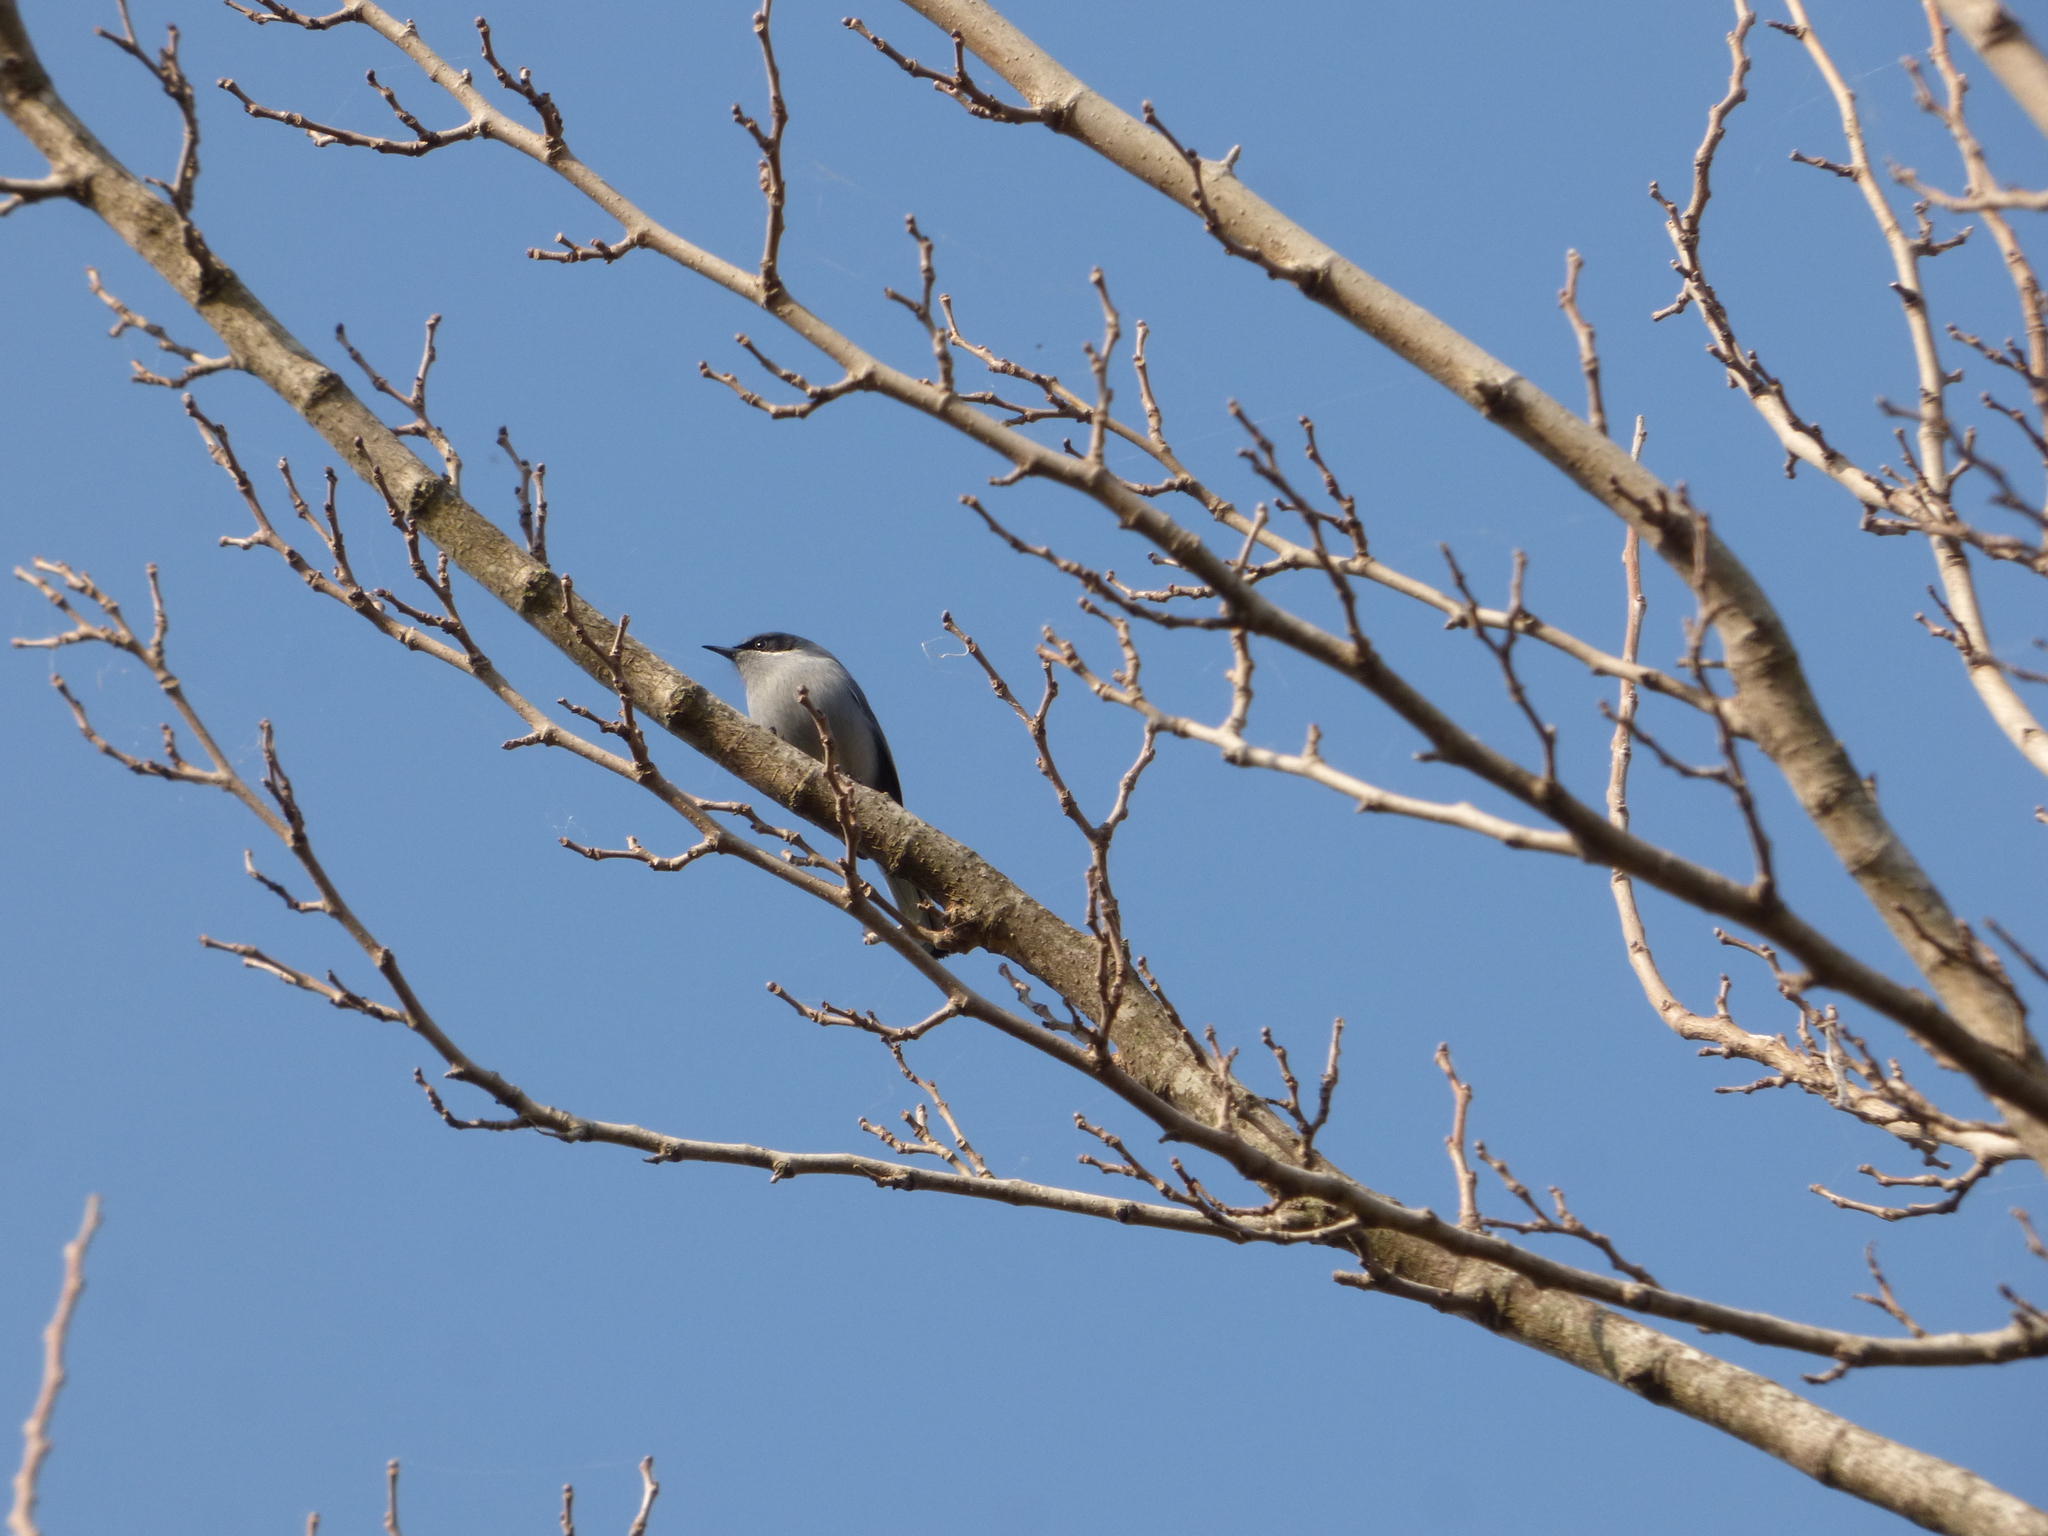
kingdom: Animalia
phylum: Chordata
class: Aves
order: Passeriformes
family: Polioptilidae
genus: Polioptila
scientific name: Polioptila dumicola
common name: Masked gnatcatcher
